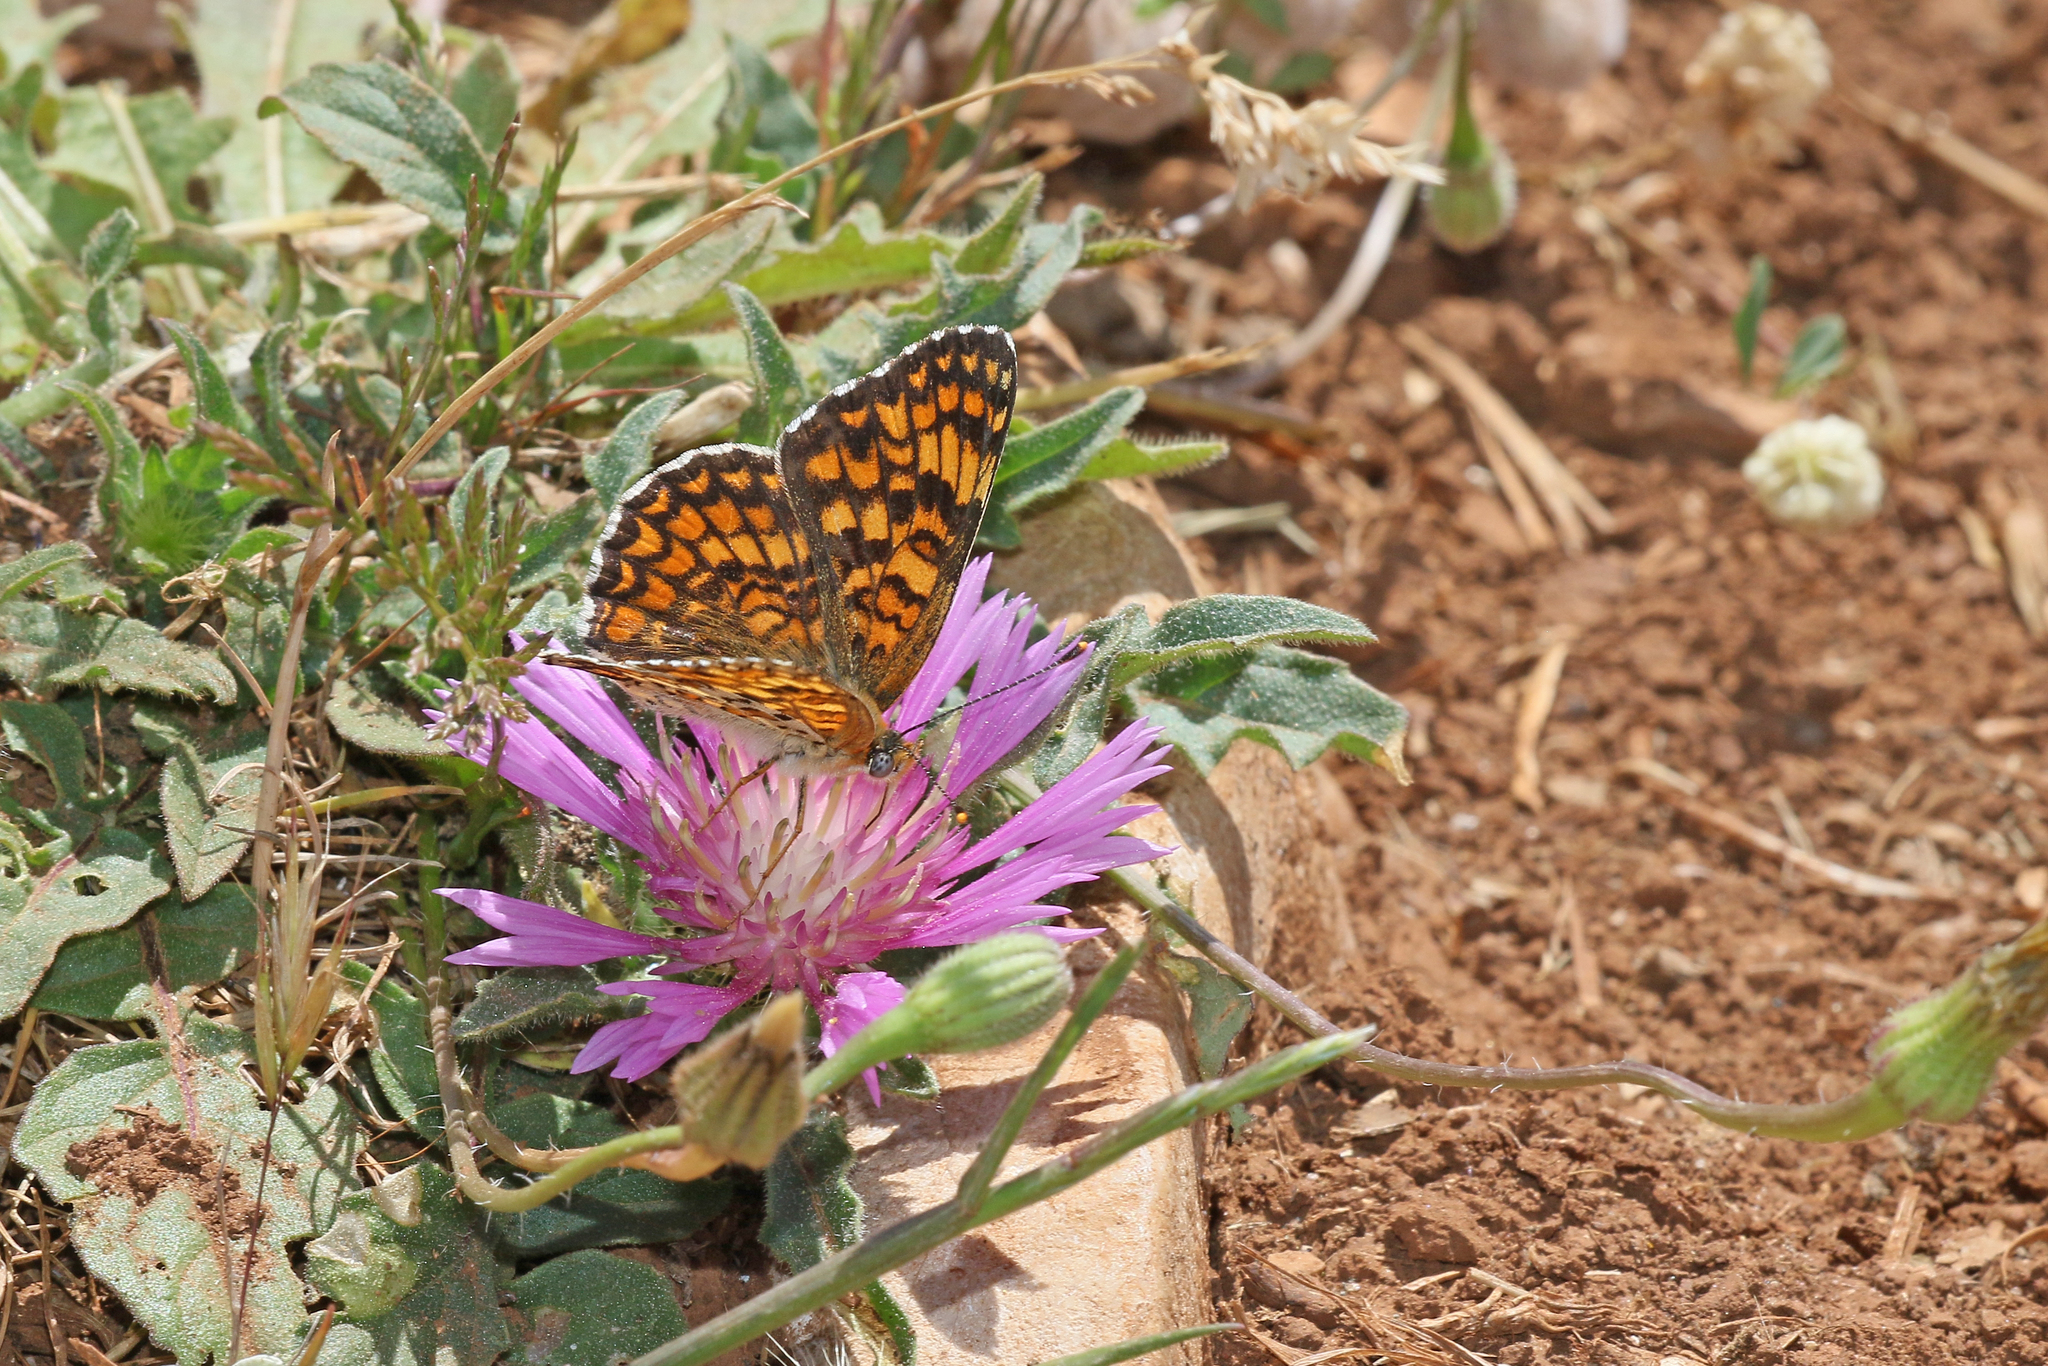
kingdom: Animalia
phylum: Arthropoda
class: Insecta
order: Lepidoptera
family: Nymphalidae
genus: Melitaea
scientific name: Melitaea phoebe
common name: Knapweed fritillary
